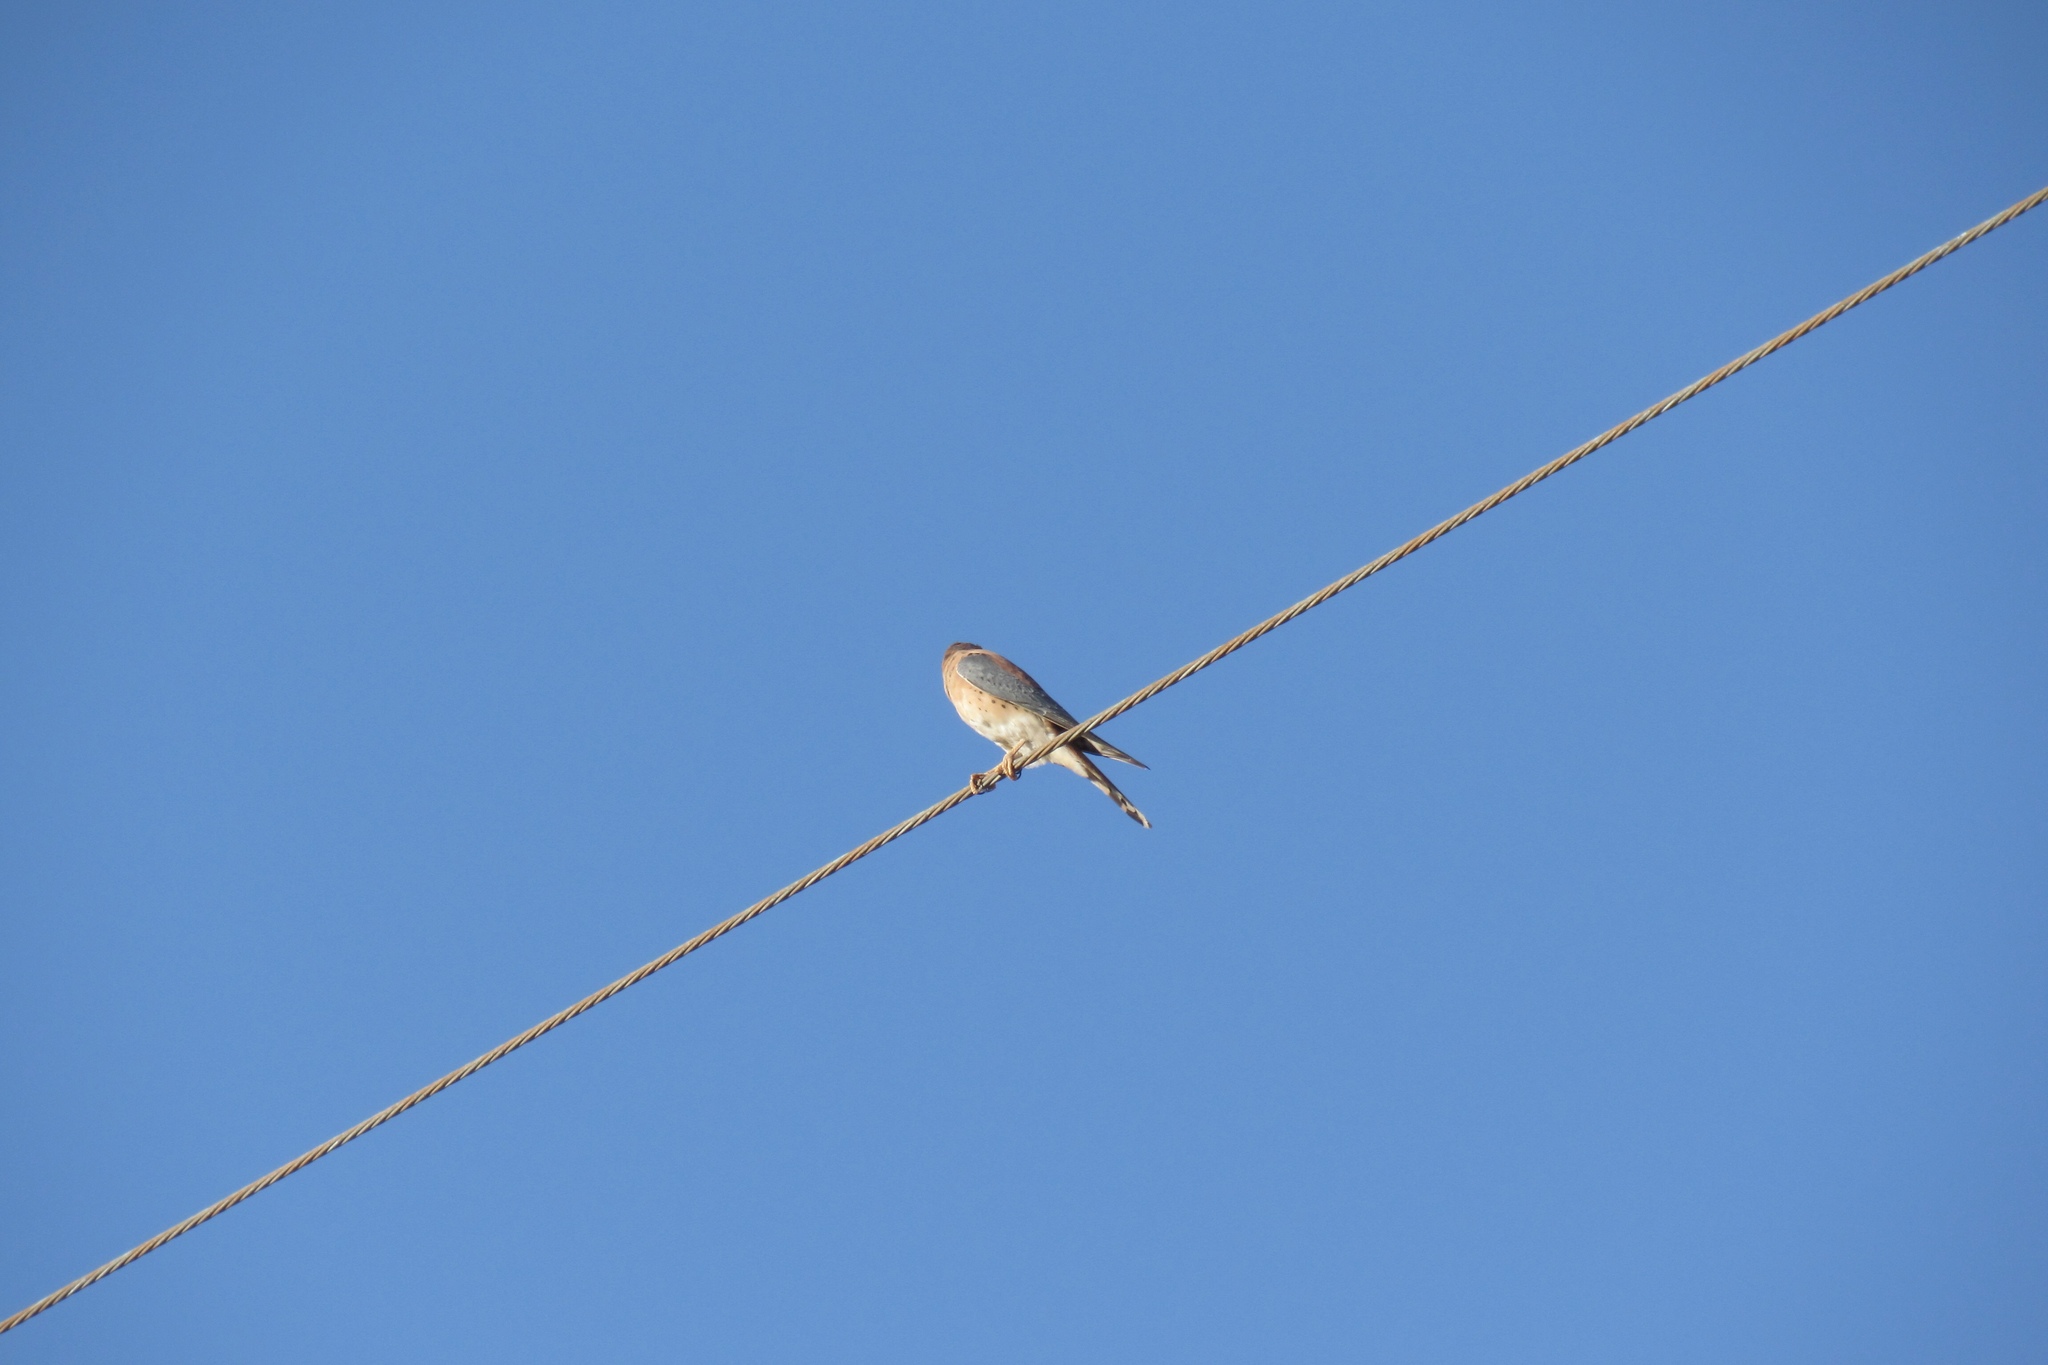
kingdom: Animalia
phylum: Chordata
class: Aves
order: Falconiformes
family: Falconidae
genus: Falco
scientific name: Falco sparverius
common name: American kestrel
